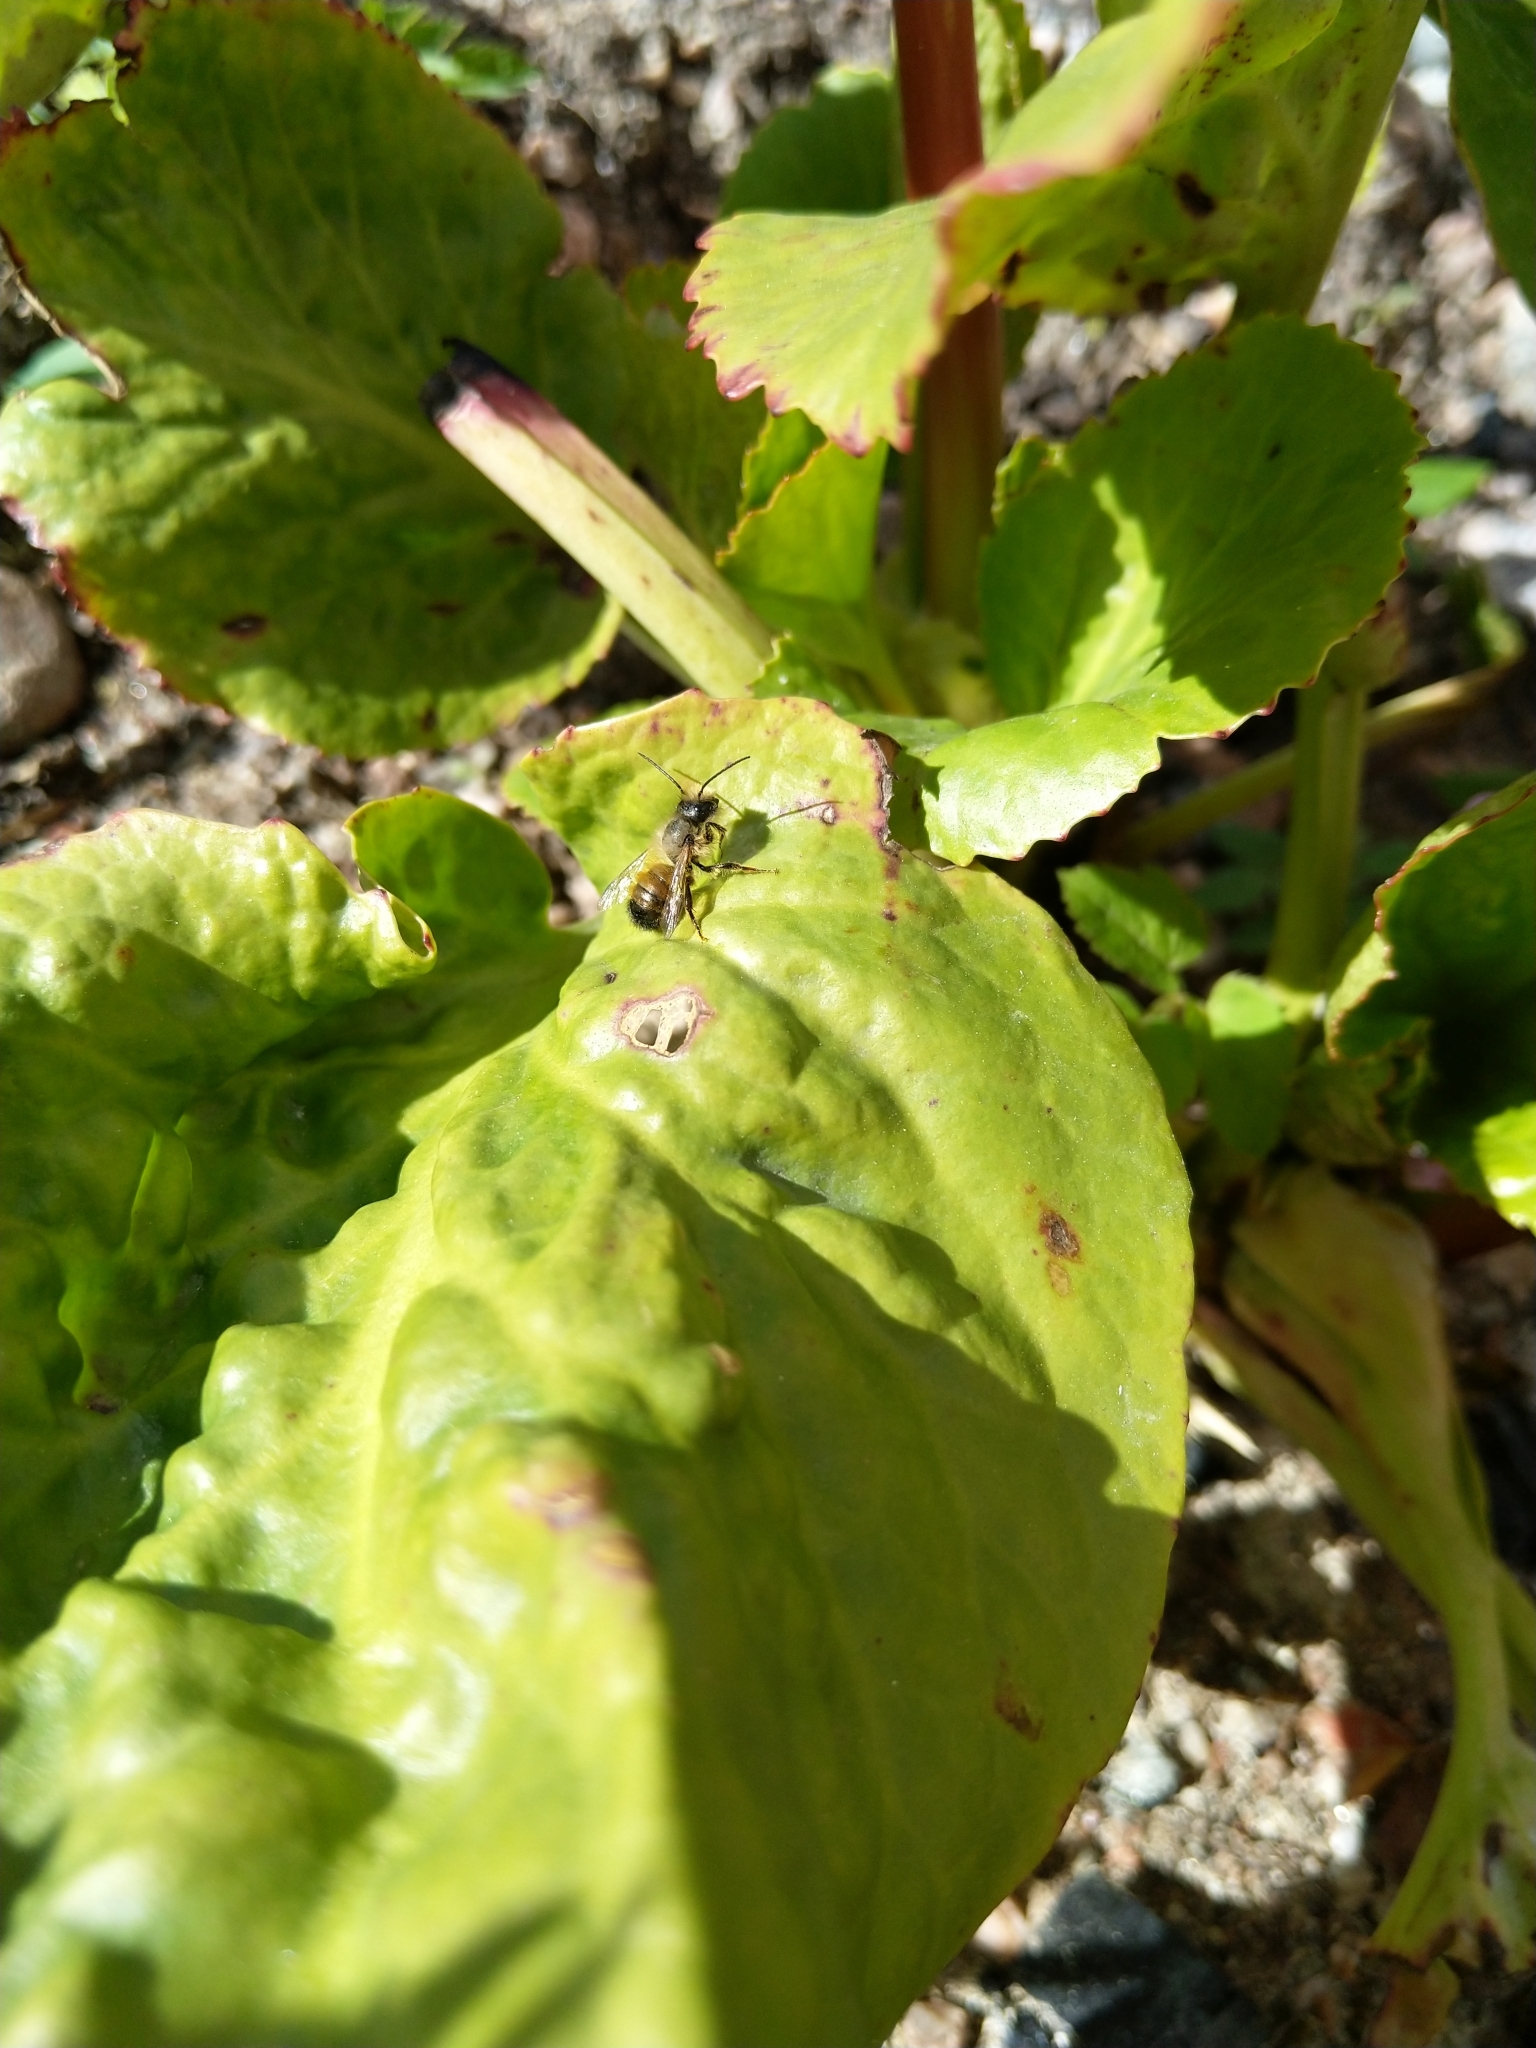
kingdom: Animalia
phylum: Arthropoda
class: Insecta
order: Hymenoptera
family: Megachilidae
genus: Osmia
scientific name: Osmia bicornis
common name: Red mason bee
